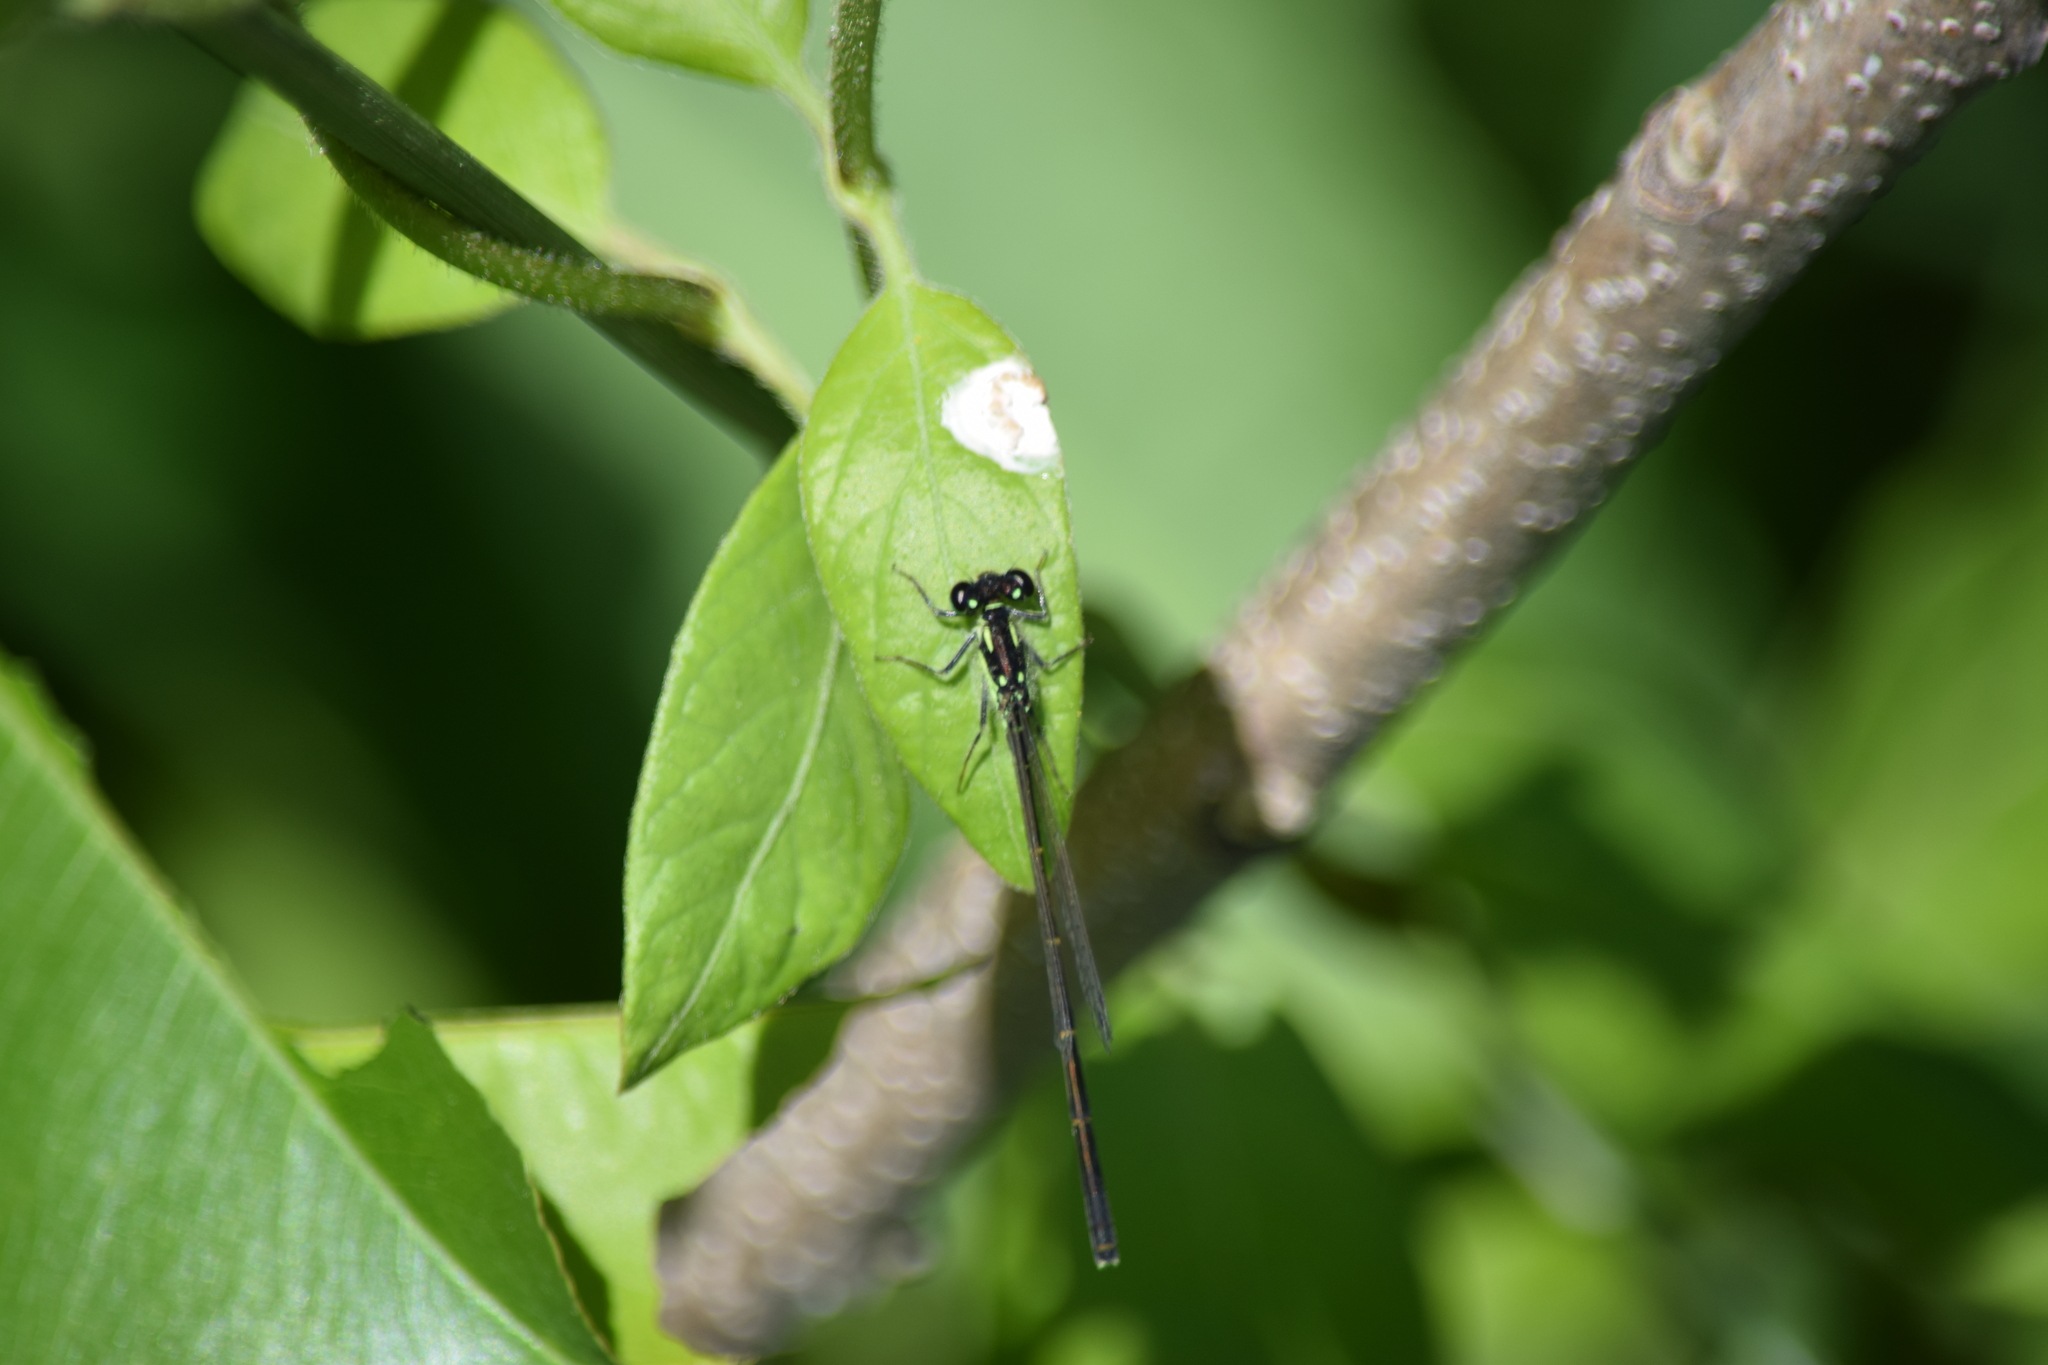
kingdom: Animalia
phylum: Arthropoda
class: Insecta
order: Odonata
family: Coenagrionidae
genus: Ischnura
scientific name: Ischnura posita
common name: Fragile forktail
